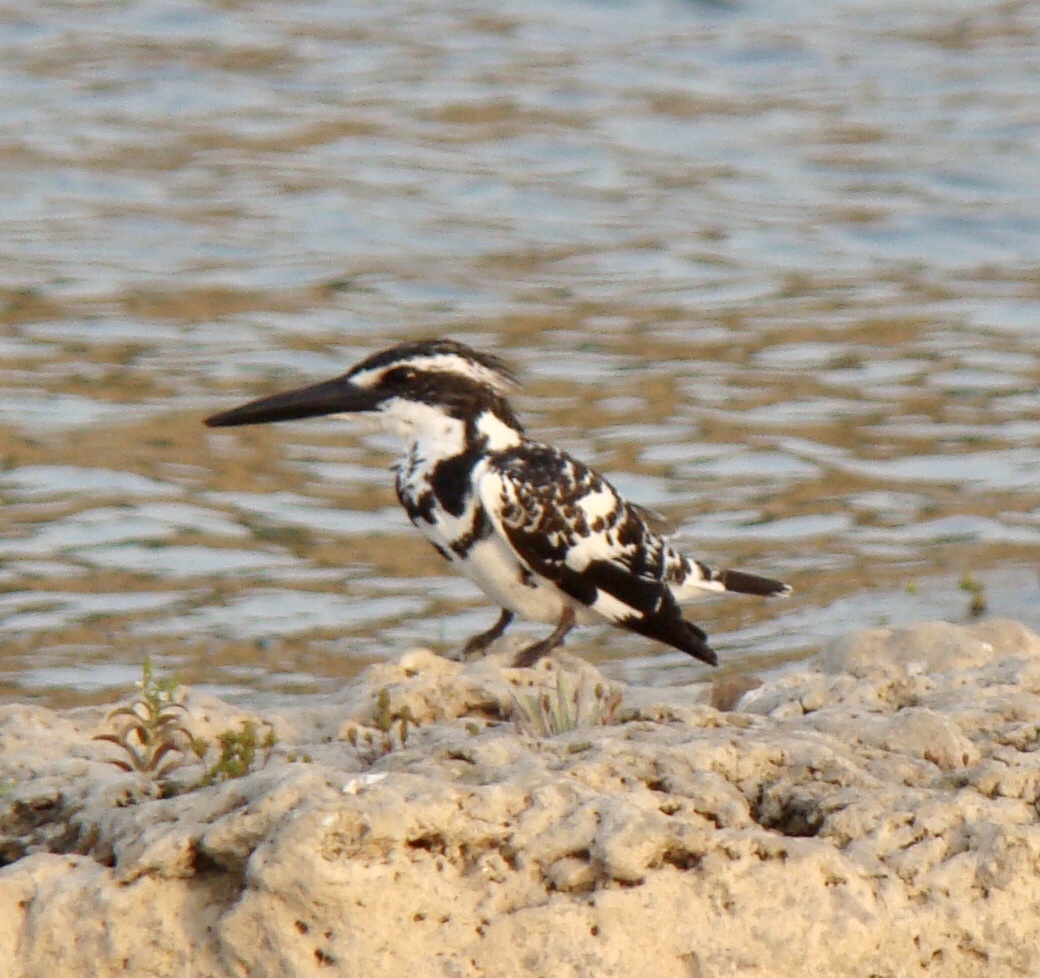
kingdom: Animalia
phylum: Chordata
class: Aves
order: Coraciiformes
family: Alcedinidae
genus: Ceryle
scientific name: Ceryle rudis
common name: Pied kingfisher
